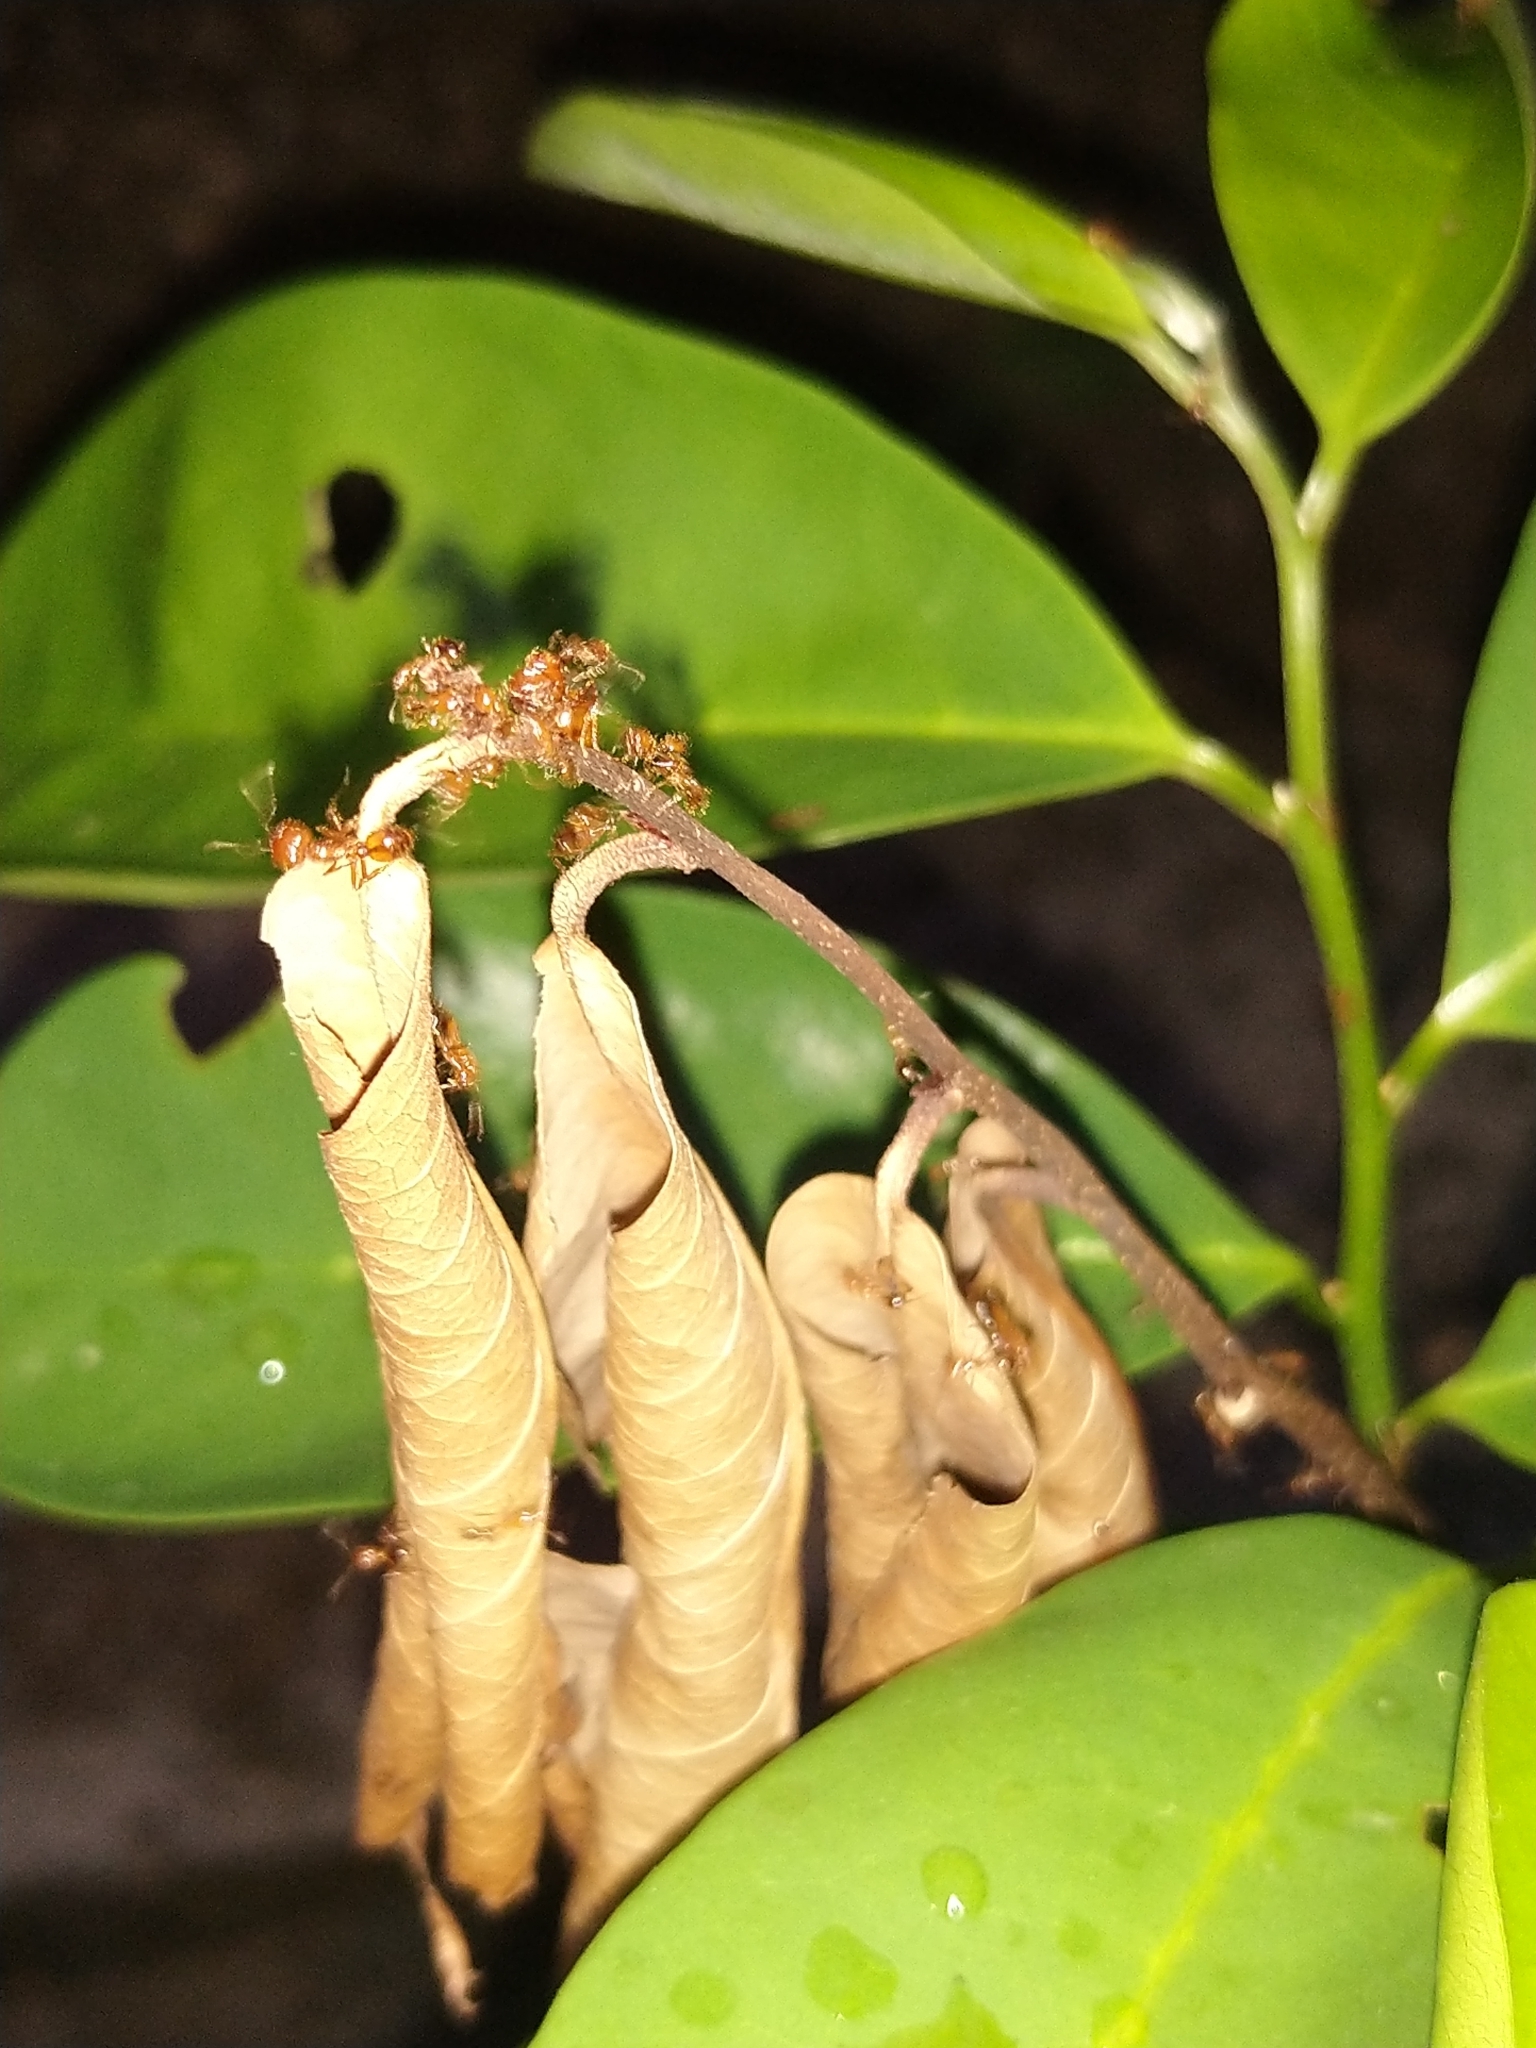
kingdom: Animalia
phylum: Arthropoda
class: Insecta
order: Hymenoptera
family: Formicidae
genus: Solenopsis
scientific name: Solenopsis geminata
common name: Tropical fire ant
